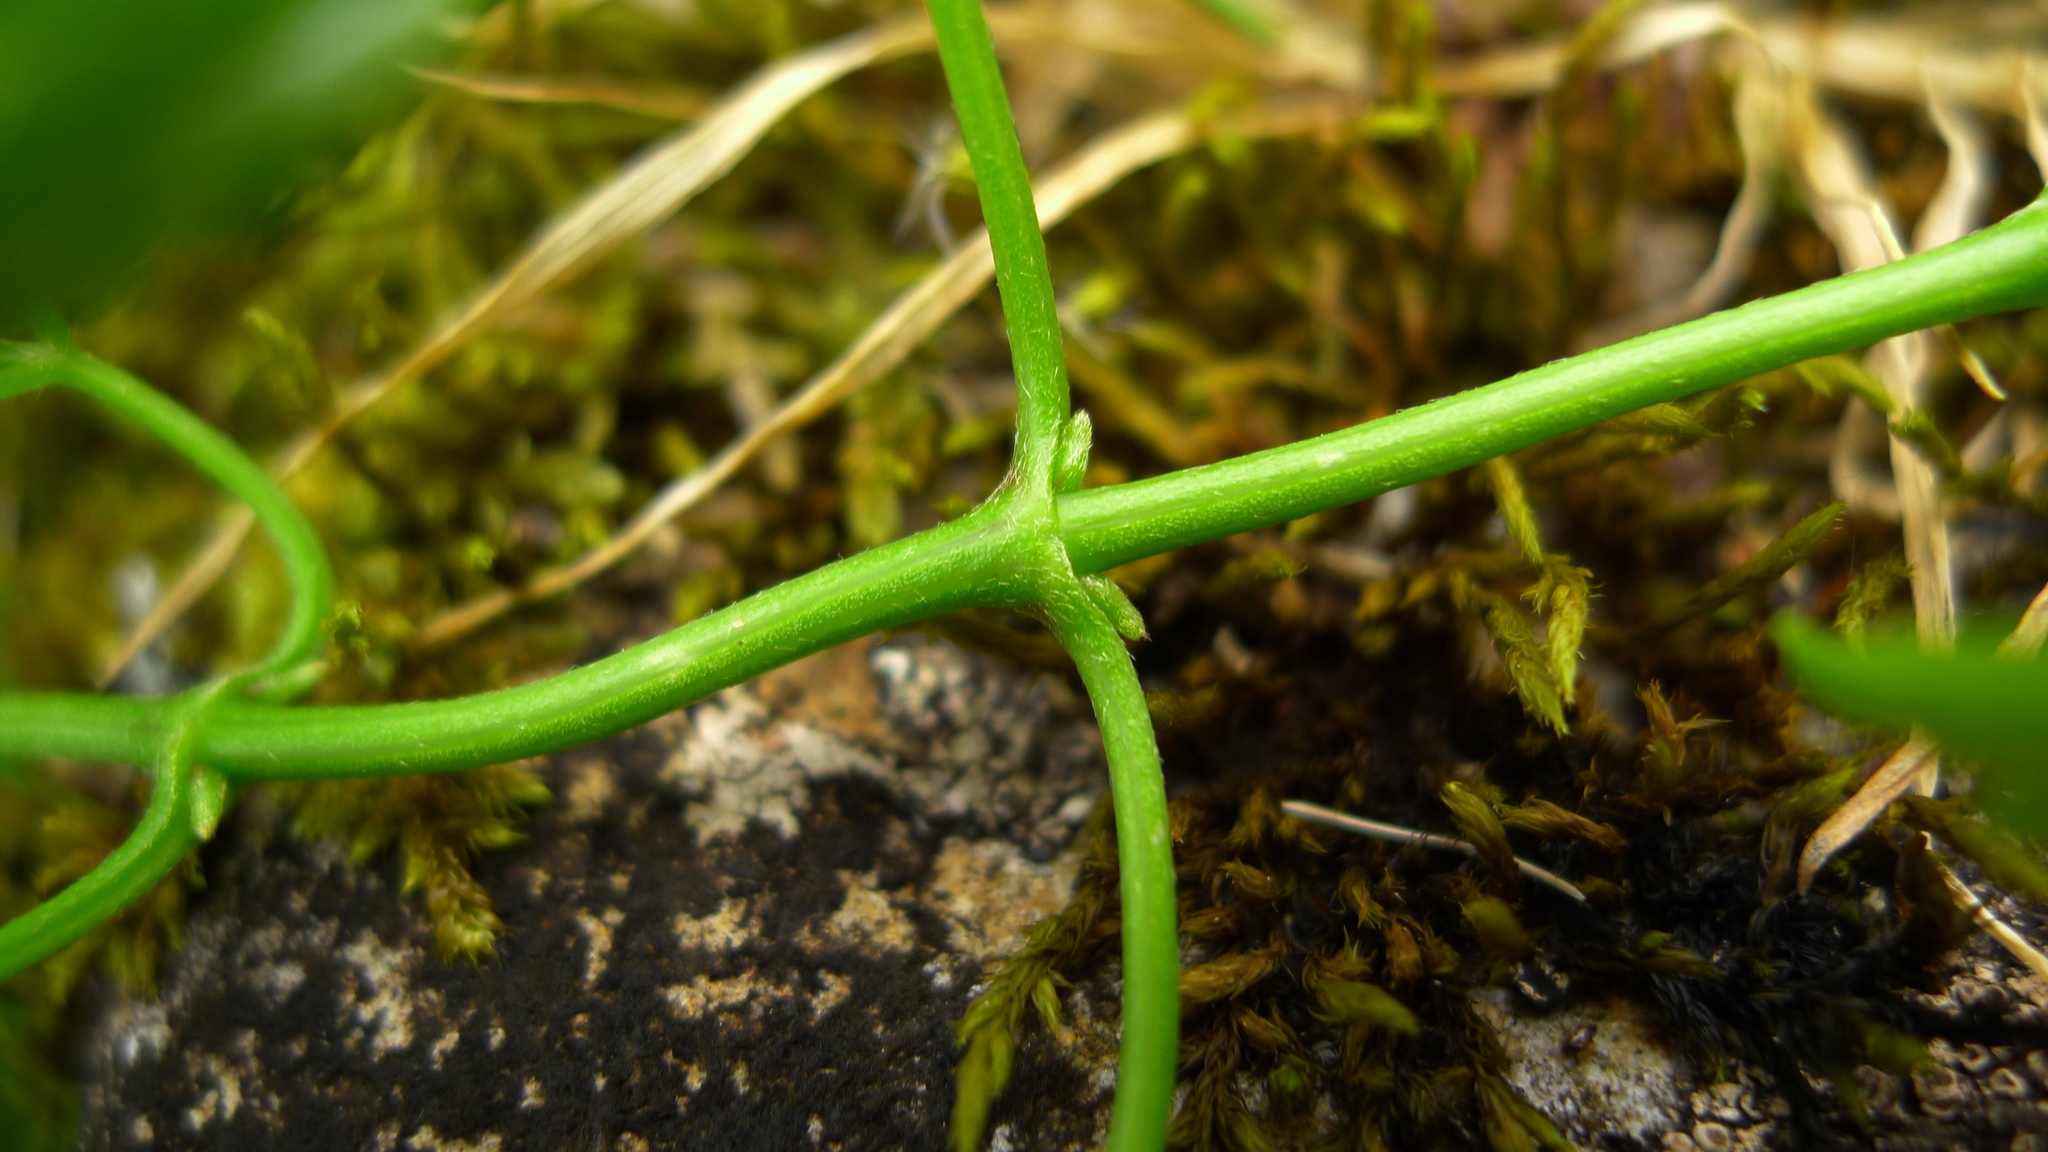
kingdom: Plantae
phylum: Tracheophyta
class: Magnoliopsida
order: Ranunculales
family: Ranunculaceae
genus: Clematis
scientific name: Clematis forsteri
